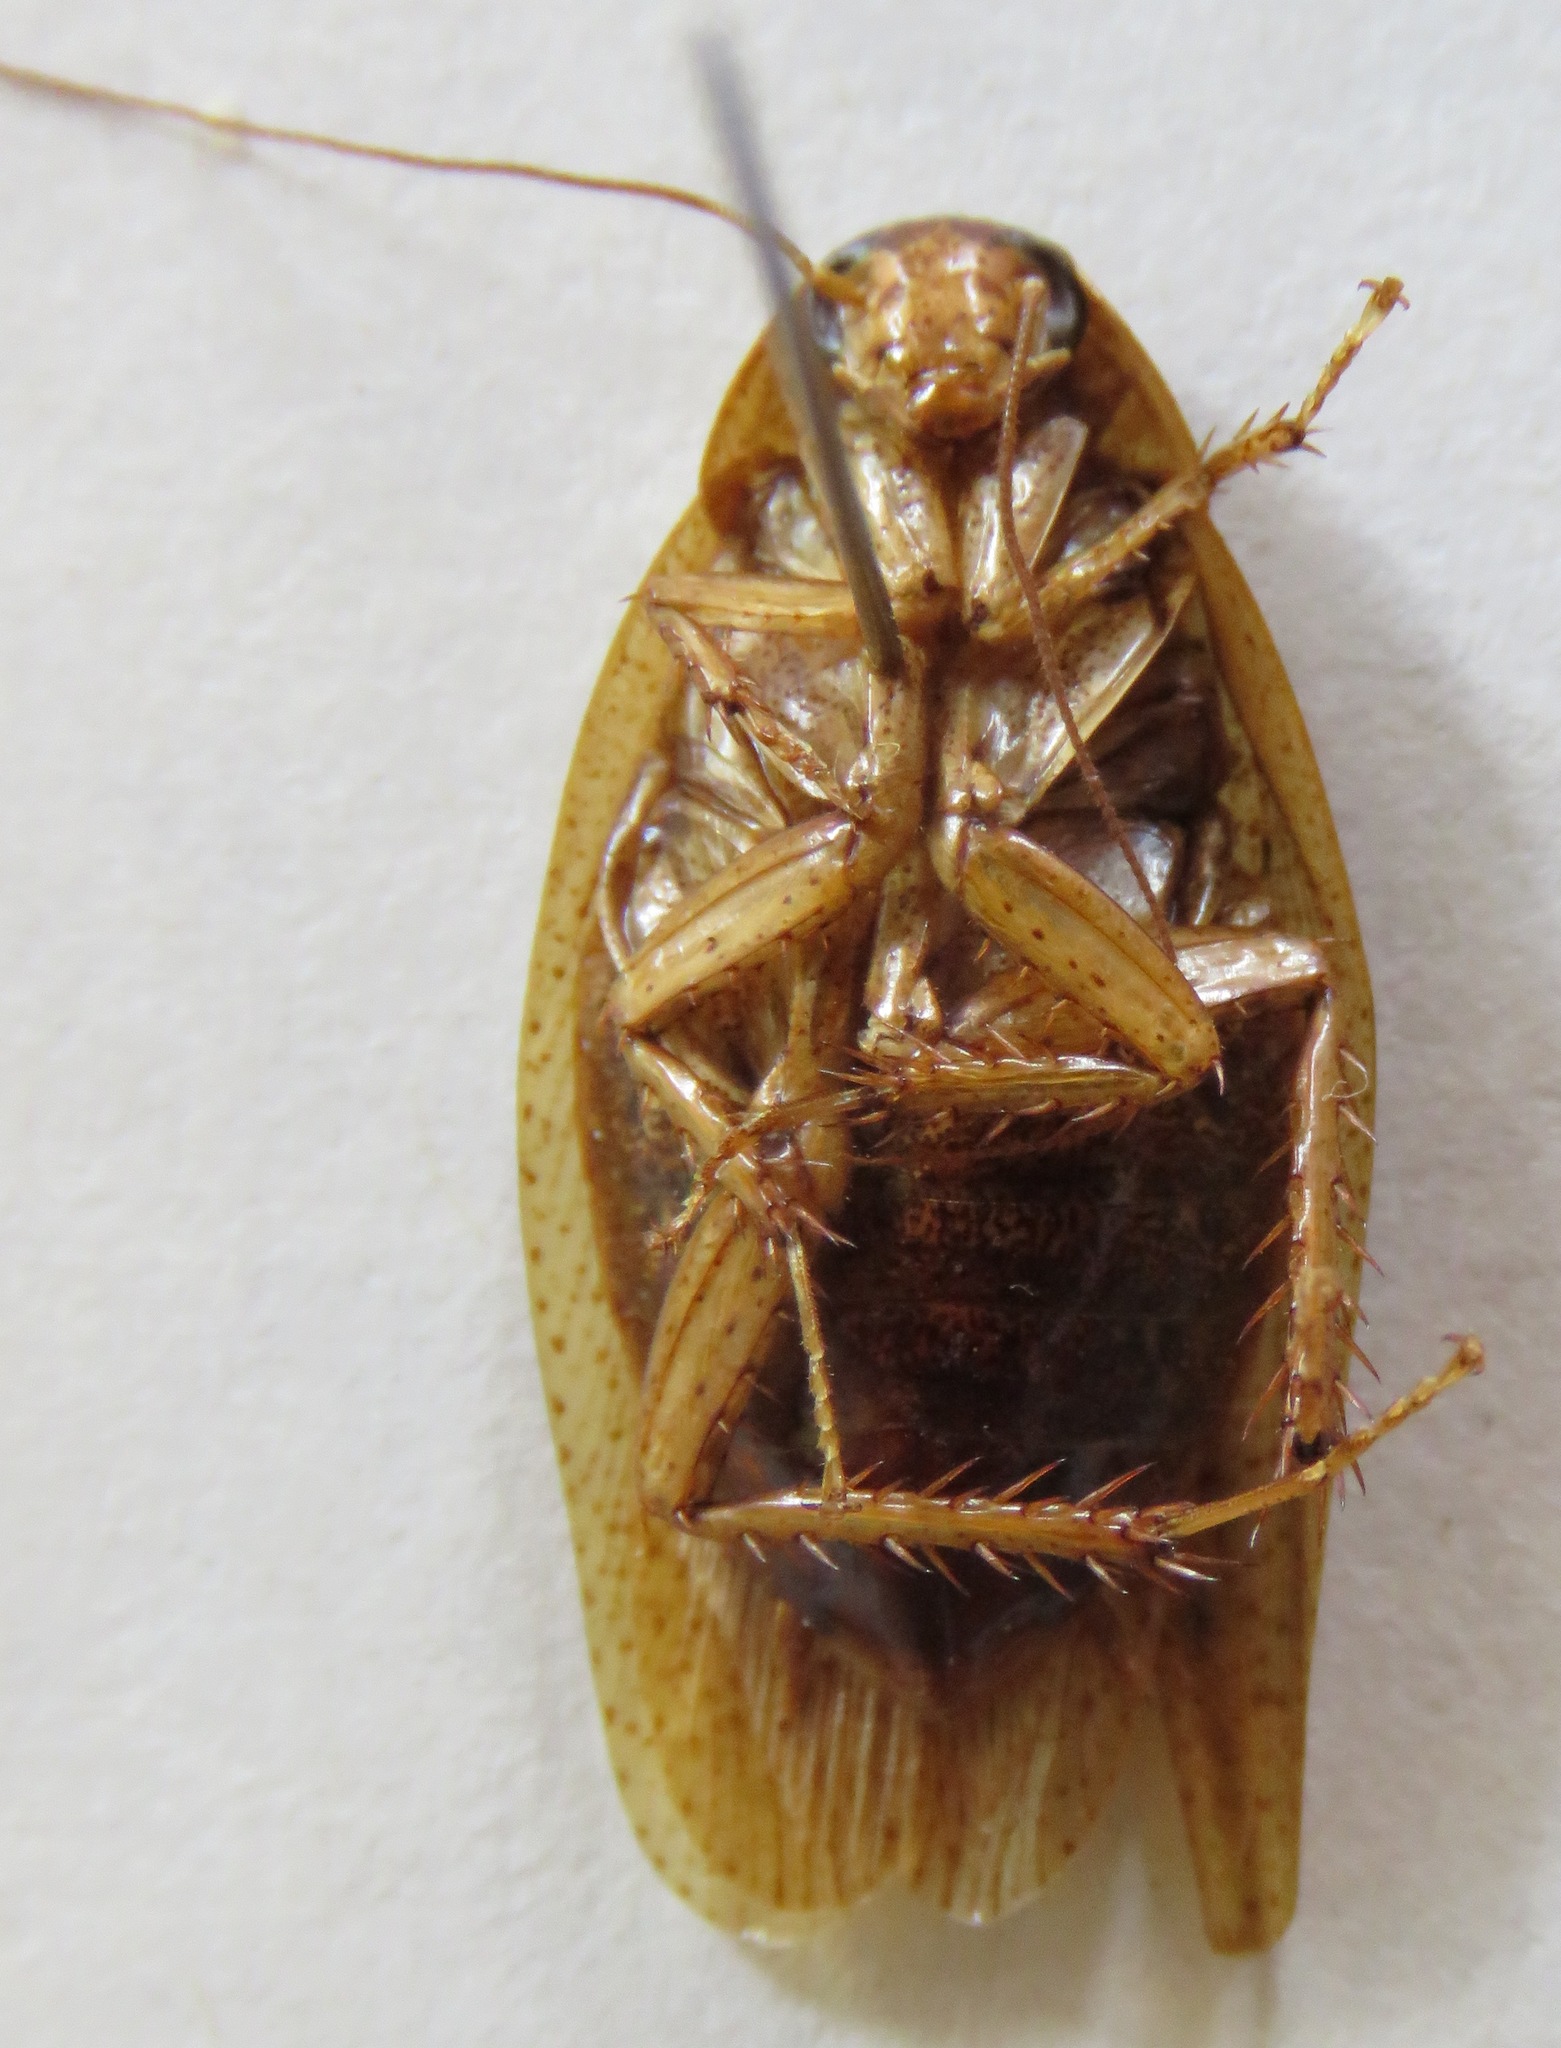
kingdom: Animalia
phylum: Arthropoda
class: Insecta
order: Blattodea
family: Blaberidae
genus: Epilampra
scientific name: Epilampra maya
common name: Maya cockroach
